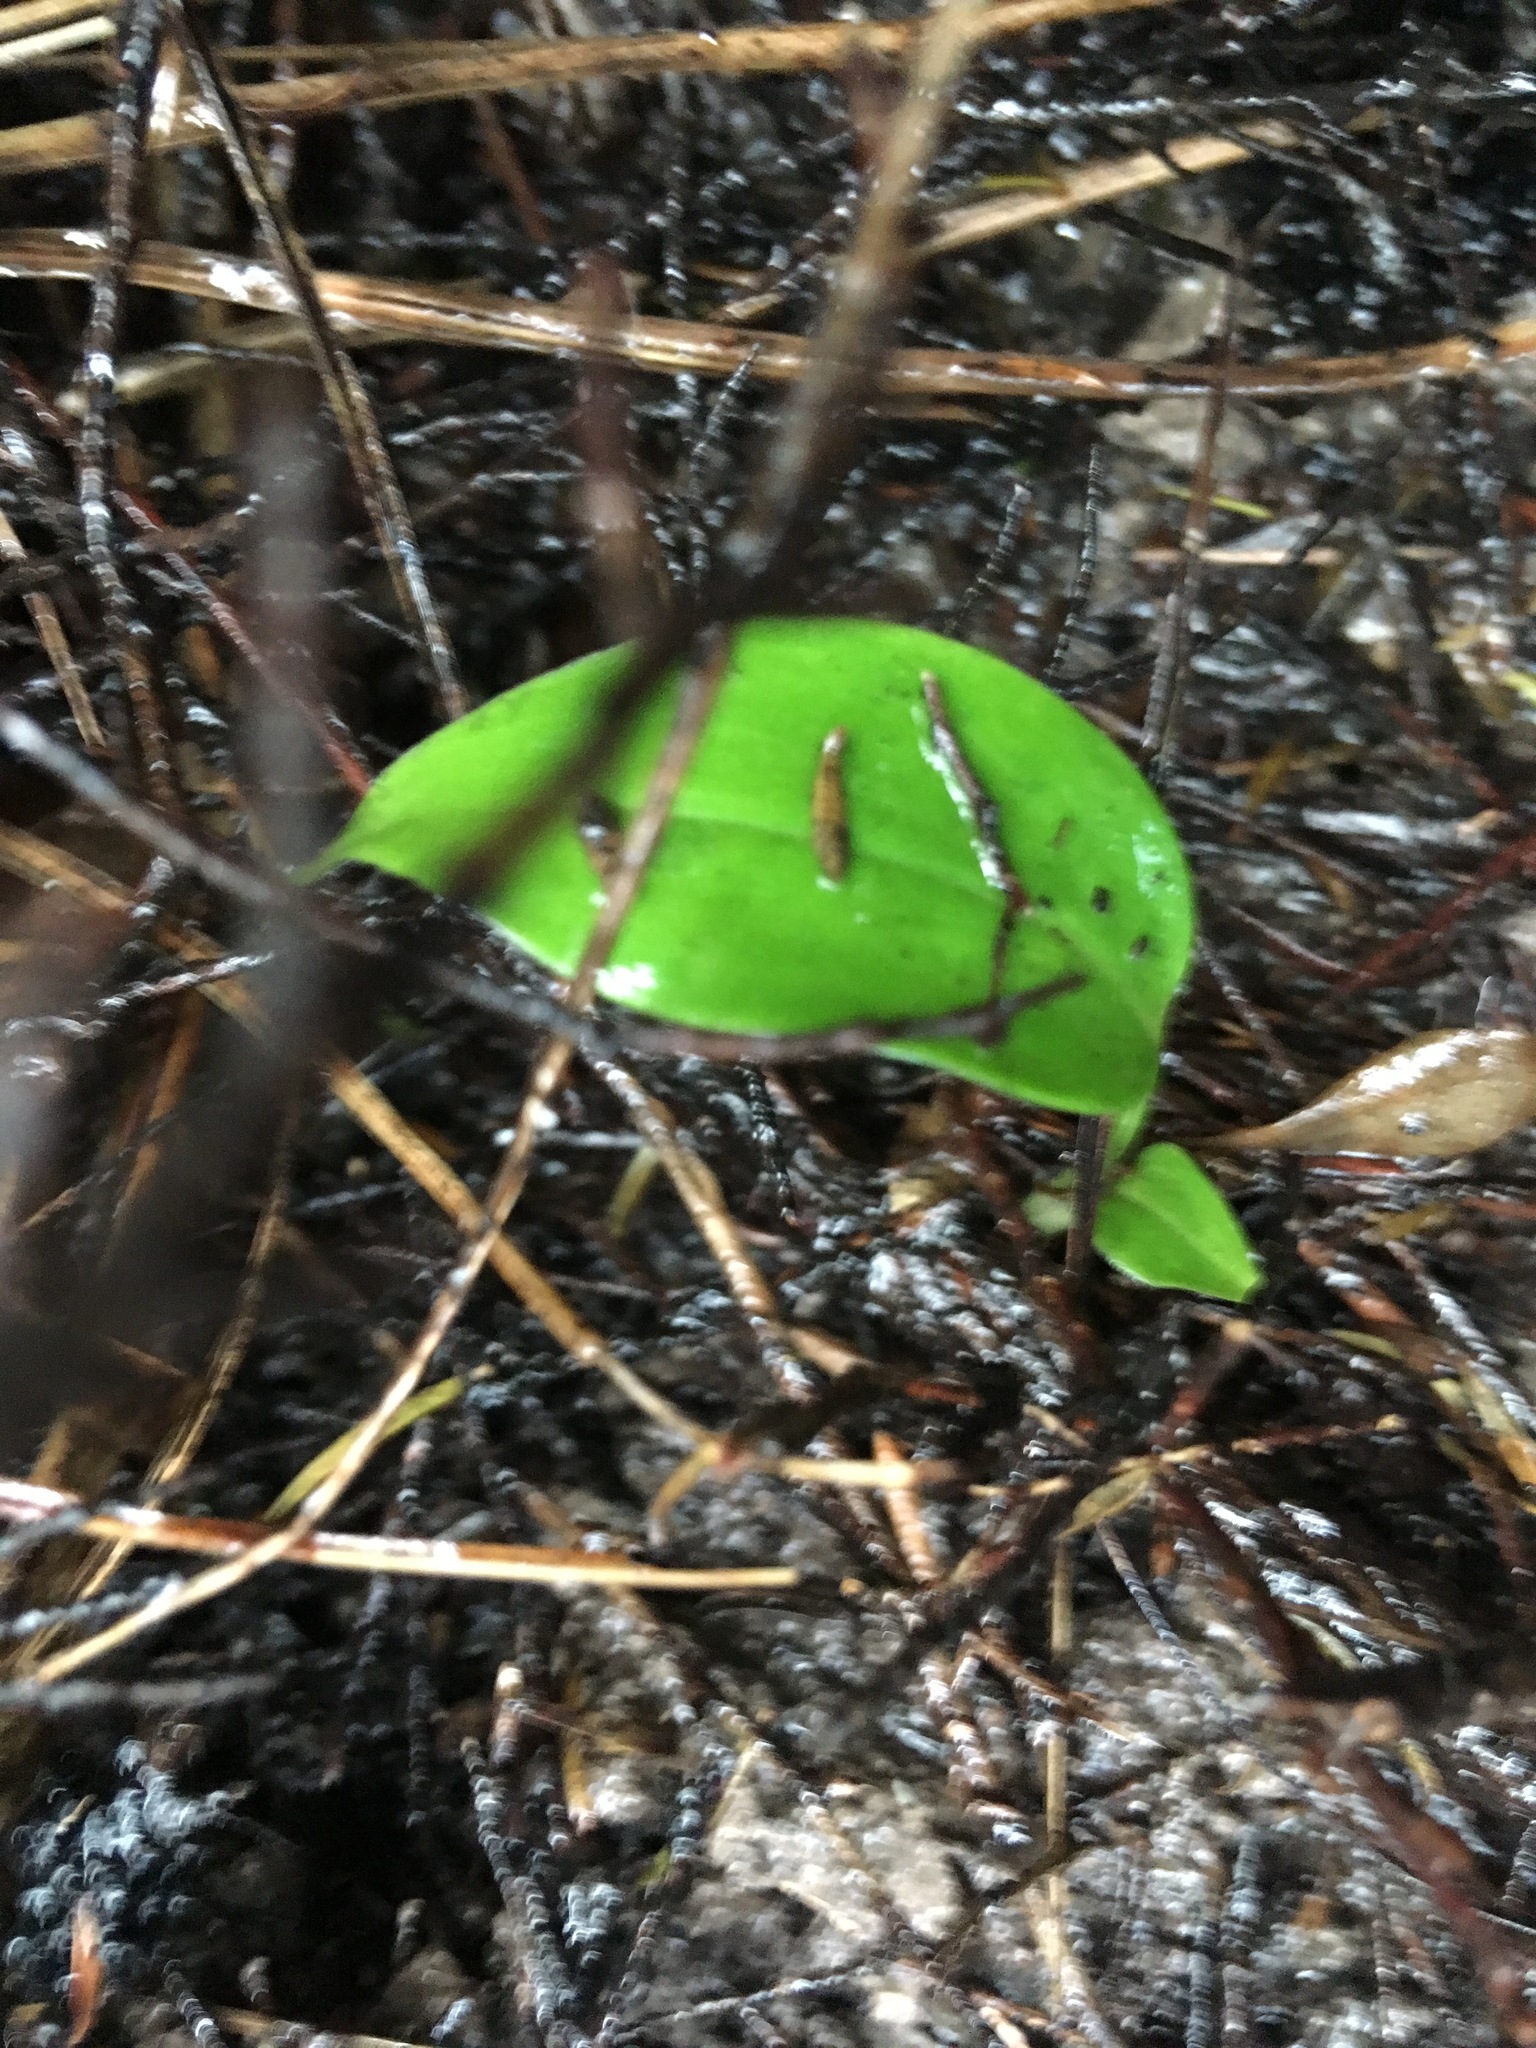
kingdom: Plantae
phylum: Tracheophyta
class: Liliopsida
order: Zingiberales
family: Zingiberaceae
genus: Hedychium
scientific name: Hedychium gardnerianum
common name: Himalayan ginger
